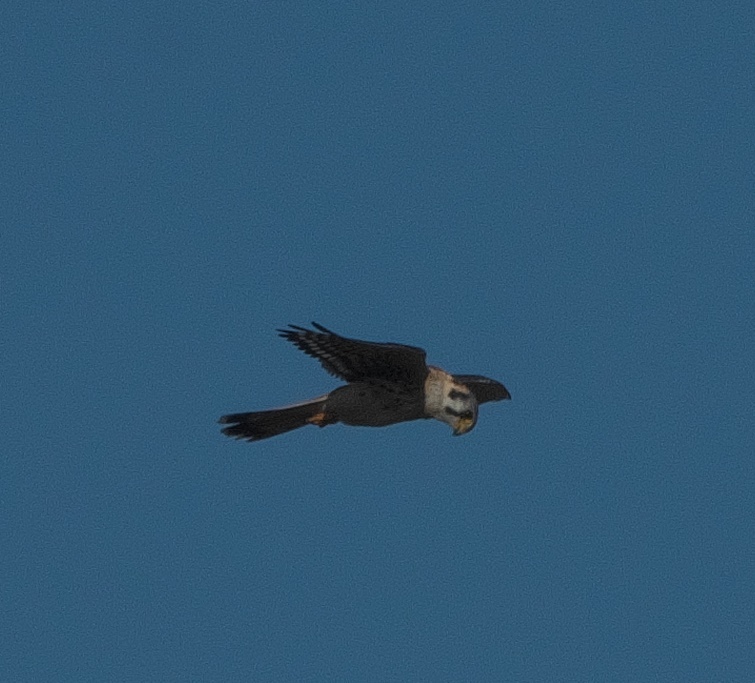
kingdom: Animalia
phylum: Chordata
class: Aves
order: Falconiformes
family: Falconidae
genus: Falco
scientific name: Falco sparverius
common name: American kestrel
